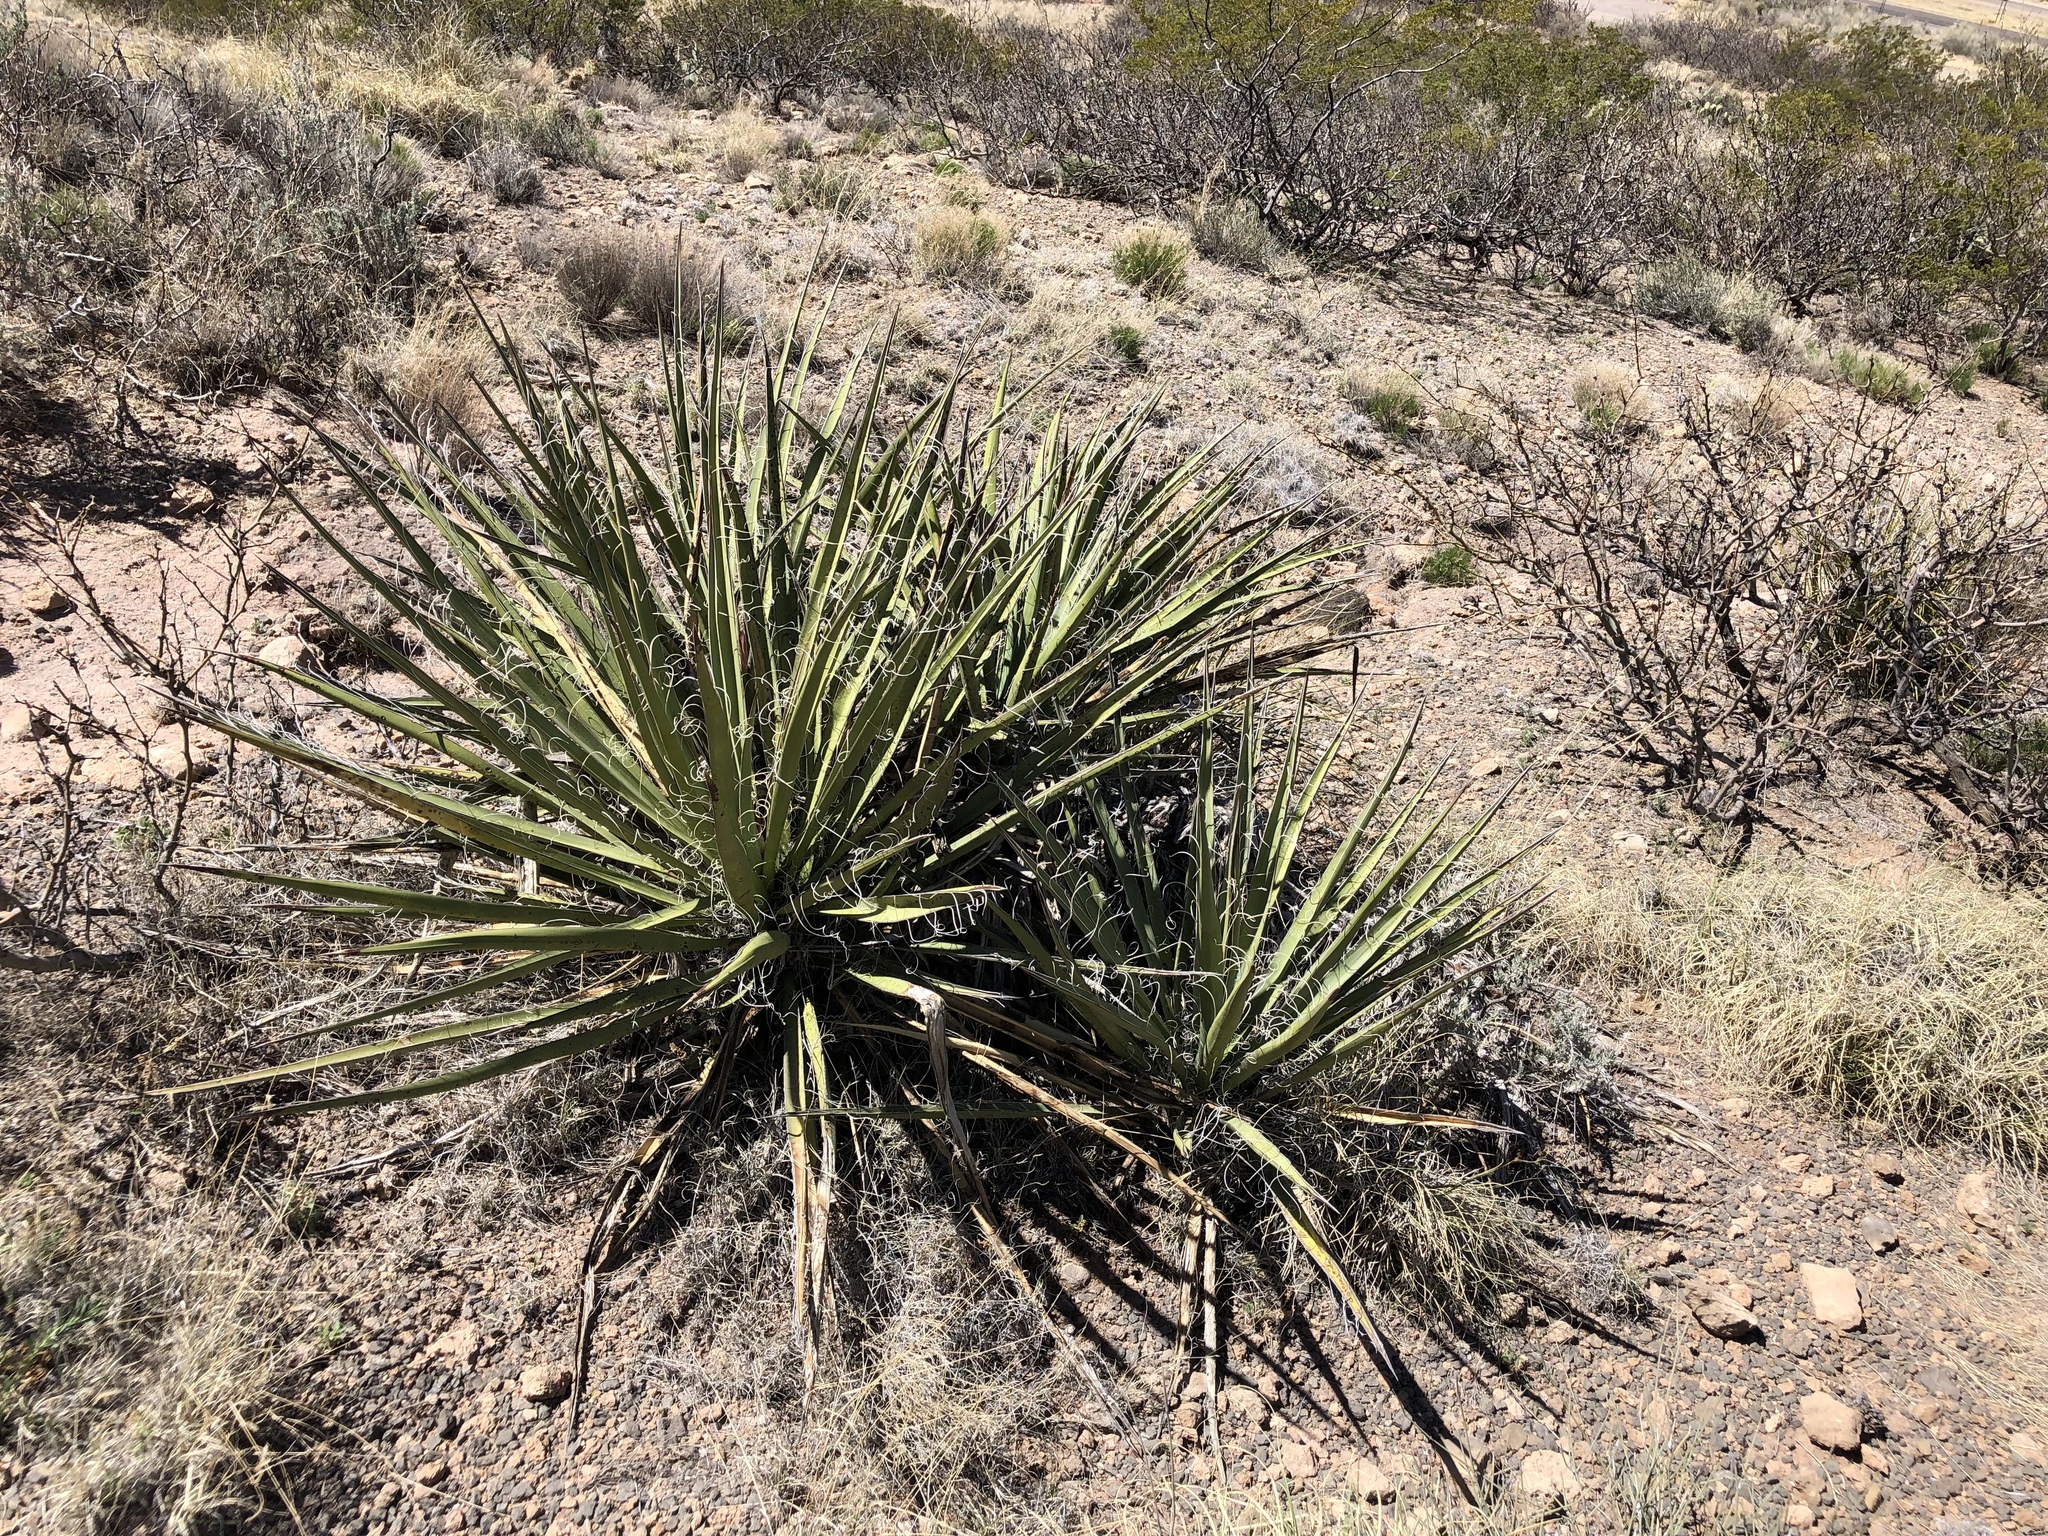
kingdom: Plantae
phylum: Tracheophyta
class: Liliopsida
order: Asparagales
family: Asparagaceae
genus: Yucca
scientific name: Yucca baccata
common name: Banana yucca
